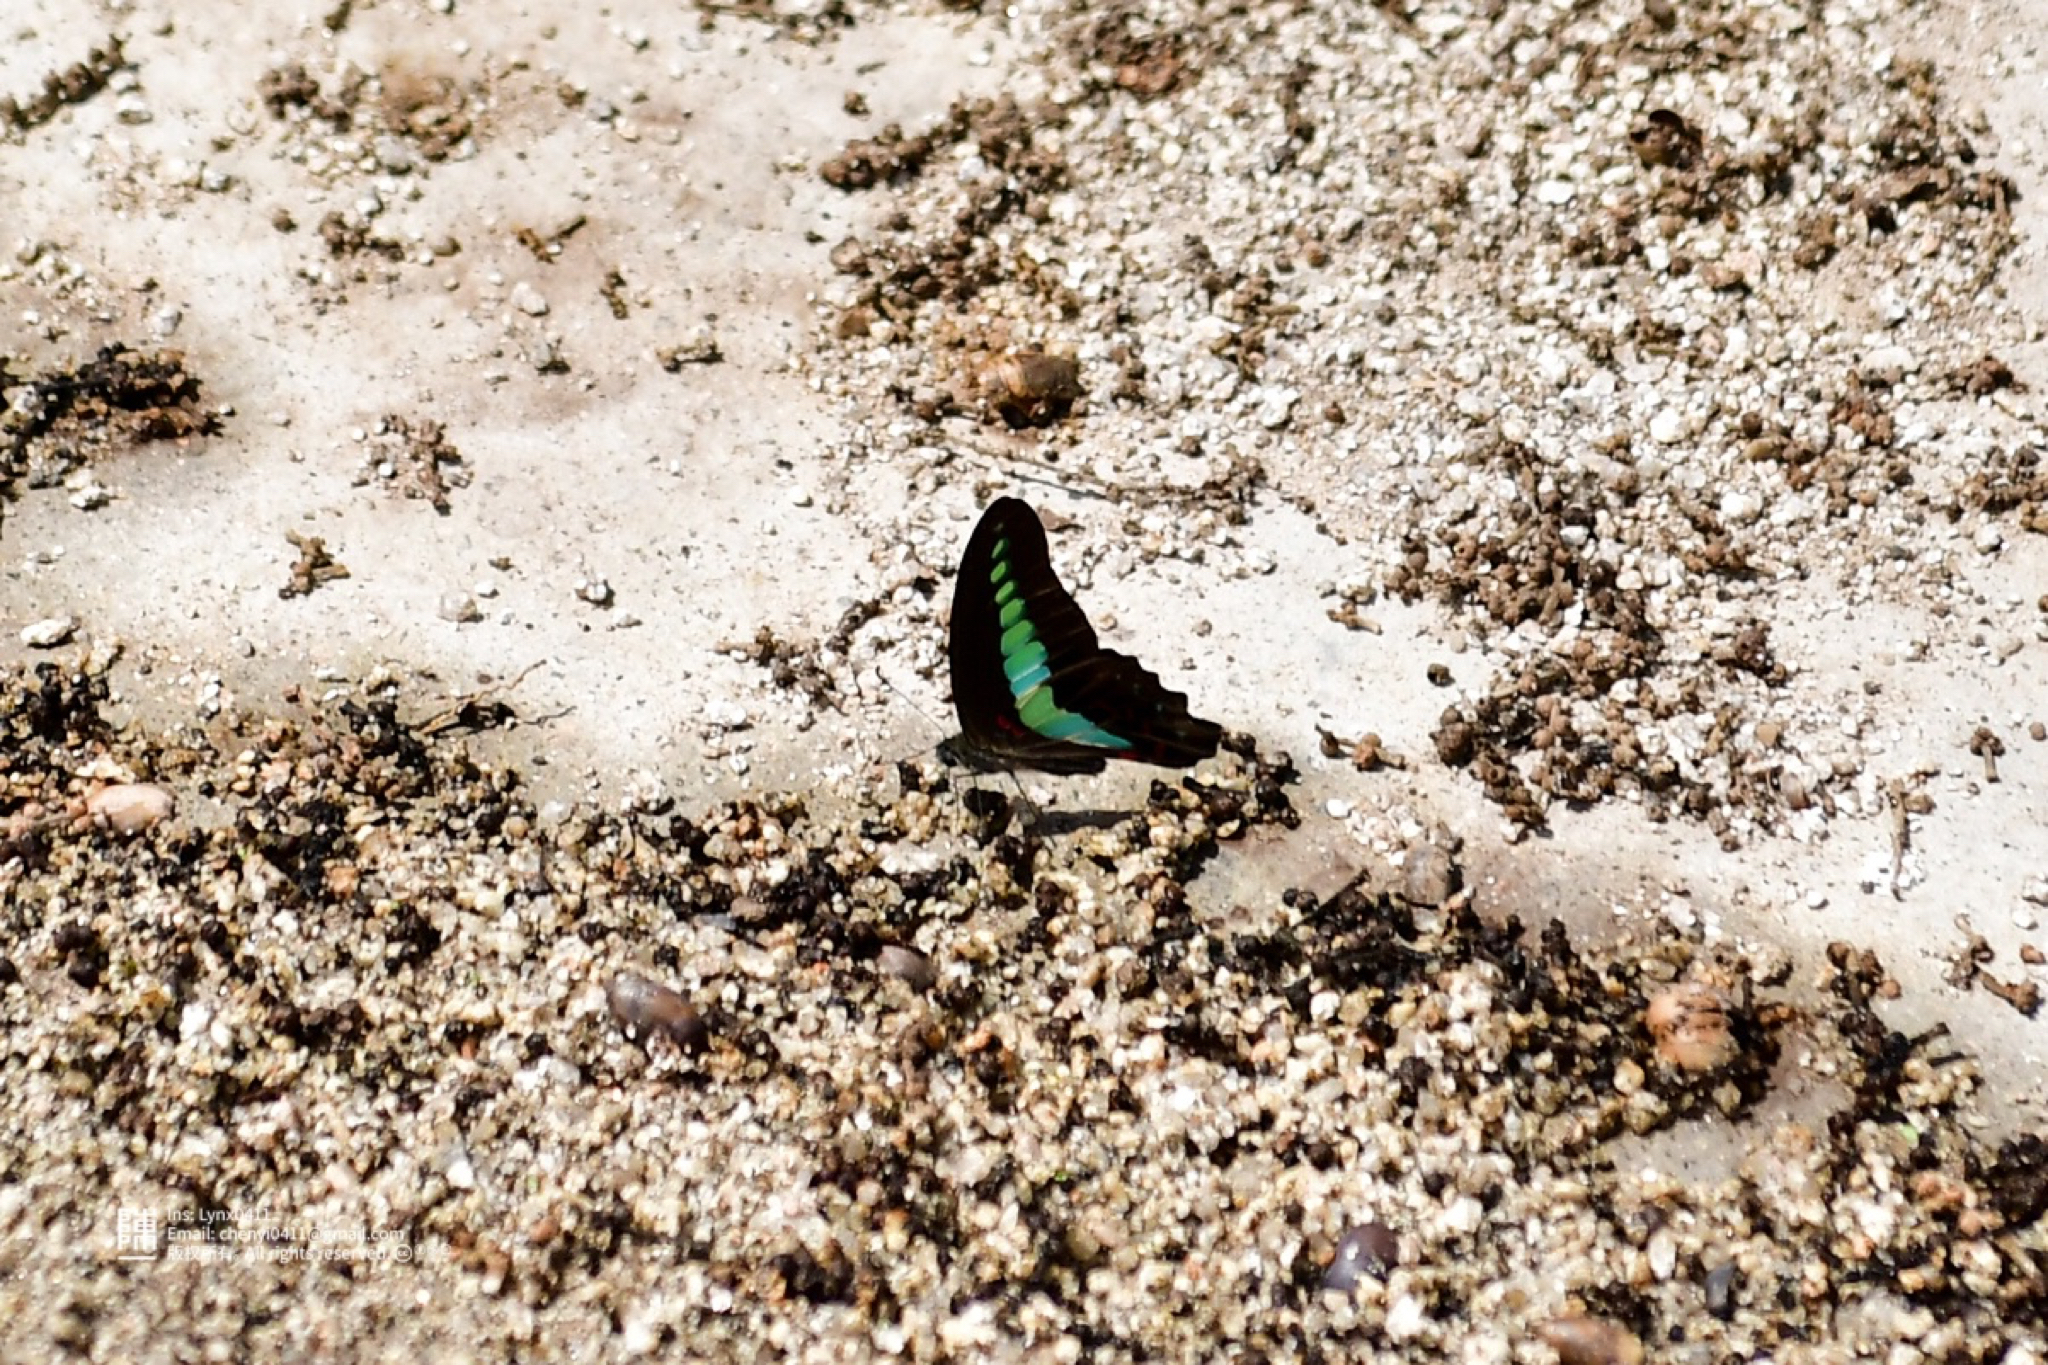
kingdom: Fungi
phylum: Ascomycota
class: Sordariomycetes
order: Microascales
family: Microascaceae
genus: Graphium
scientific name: Graphium sarpedon
